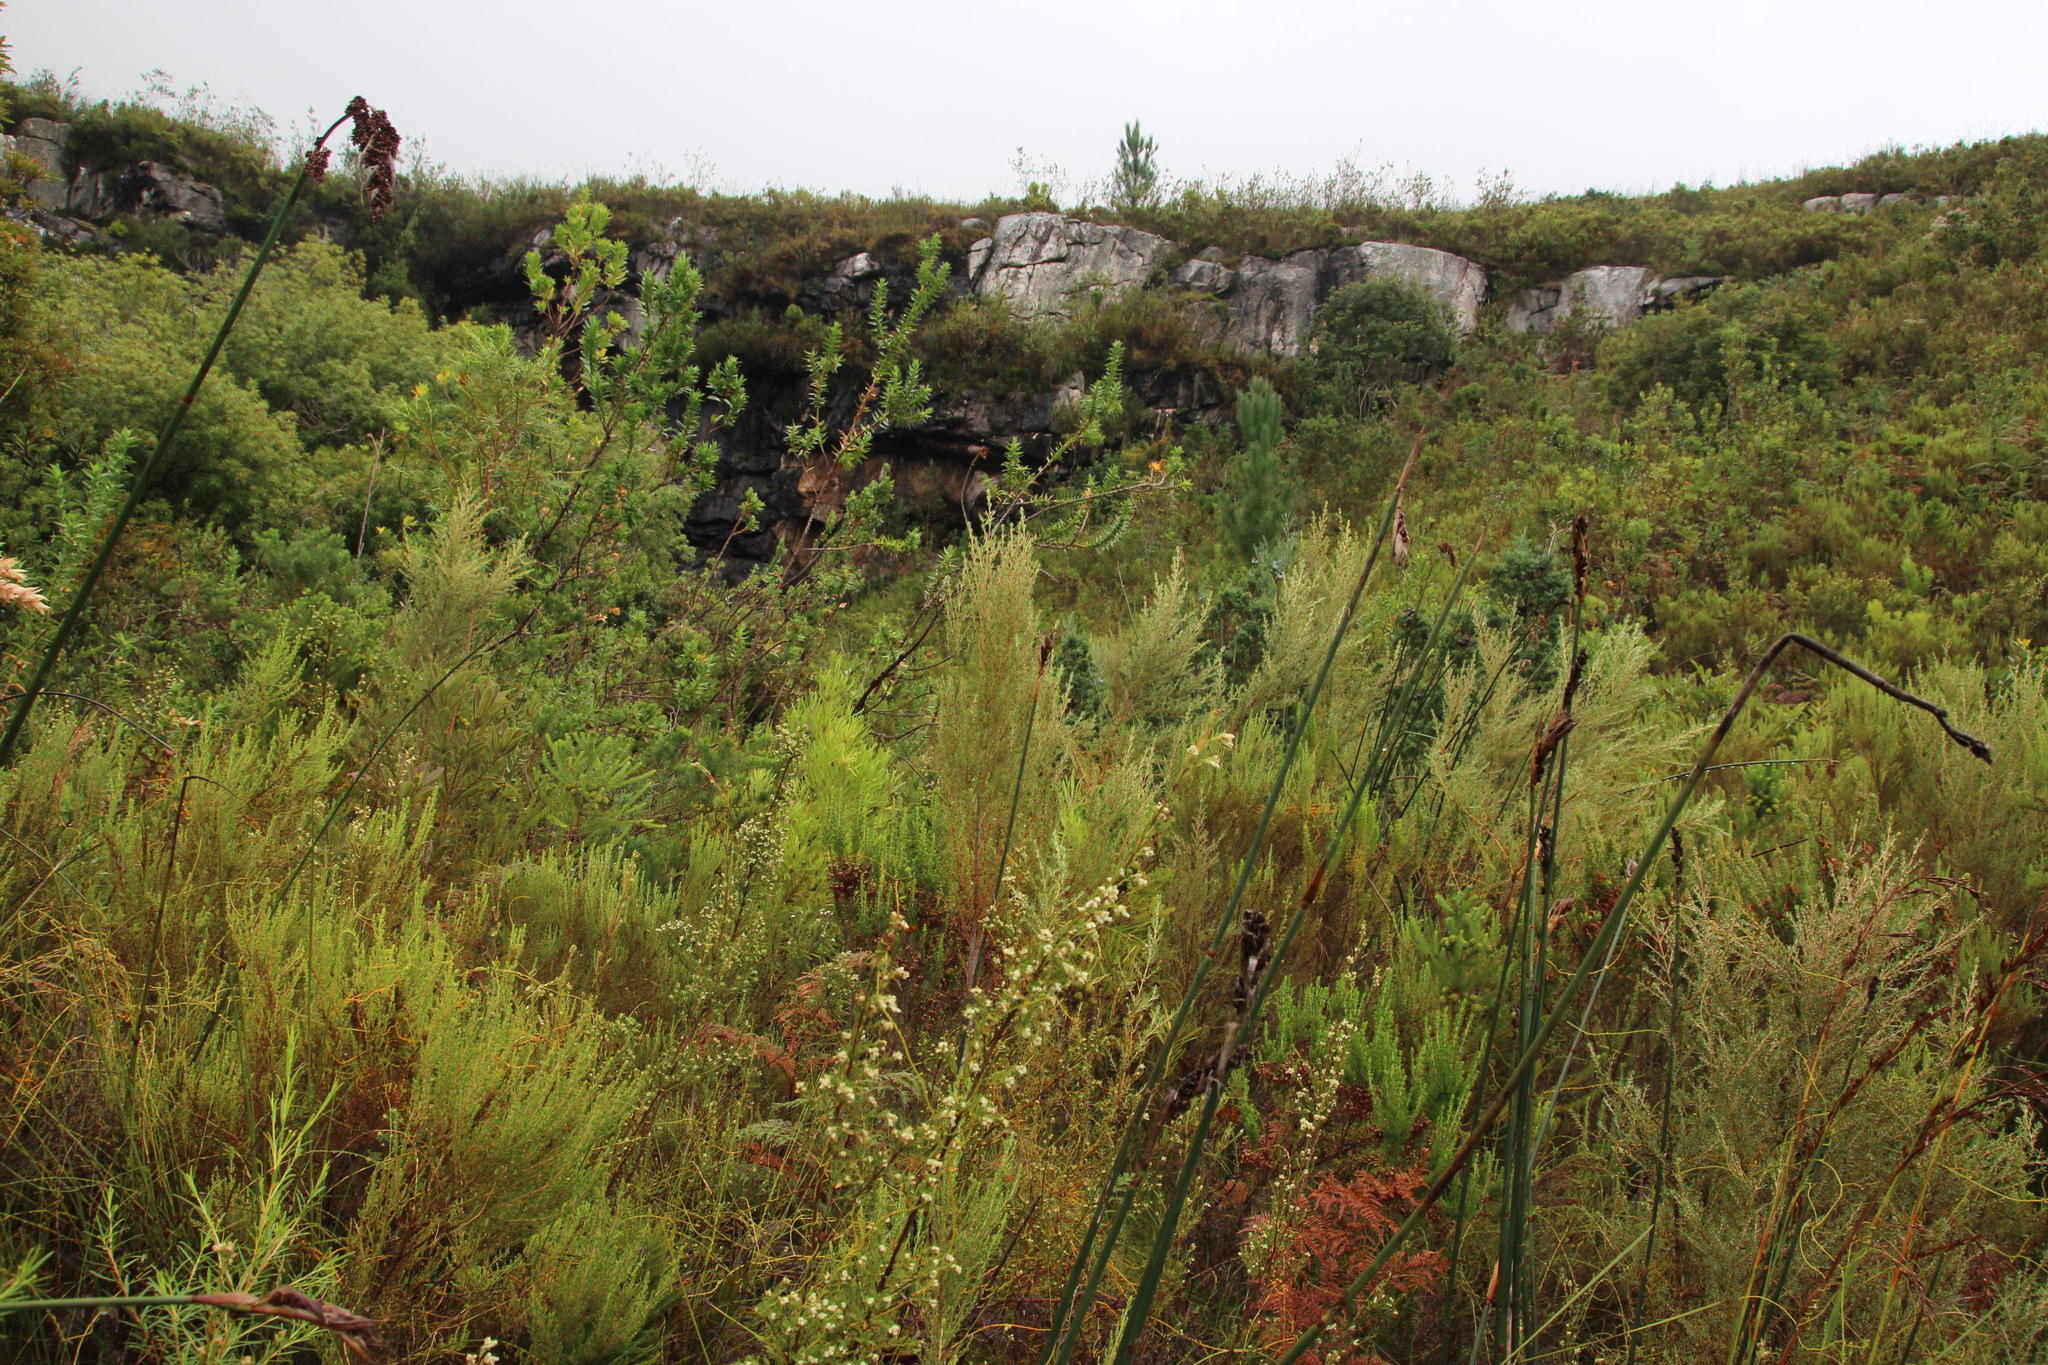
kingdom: Plantae
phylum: Tracheophyta
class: Magnoliopsida
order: Cornales
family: Grubbiaceae
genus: Grubbia
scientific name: Grubbia rosmarinifolia
